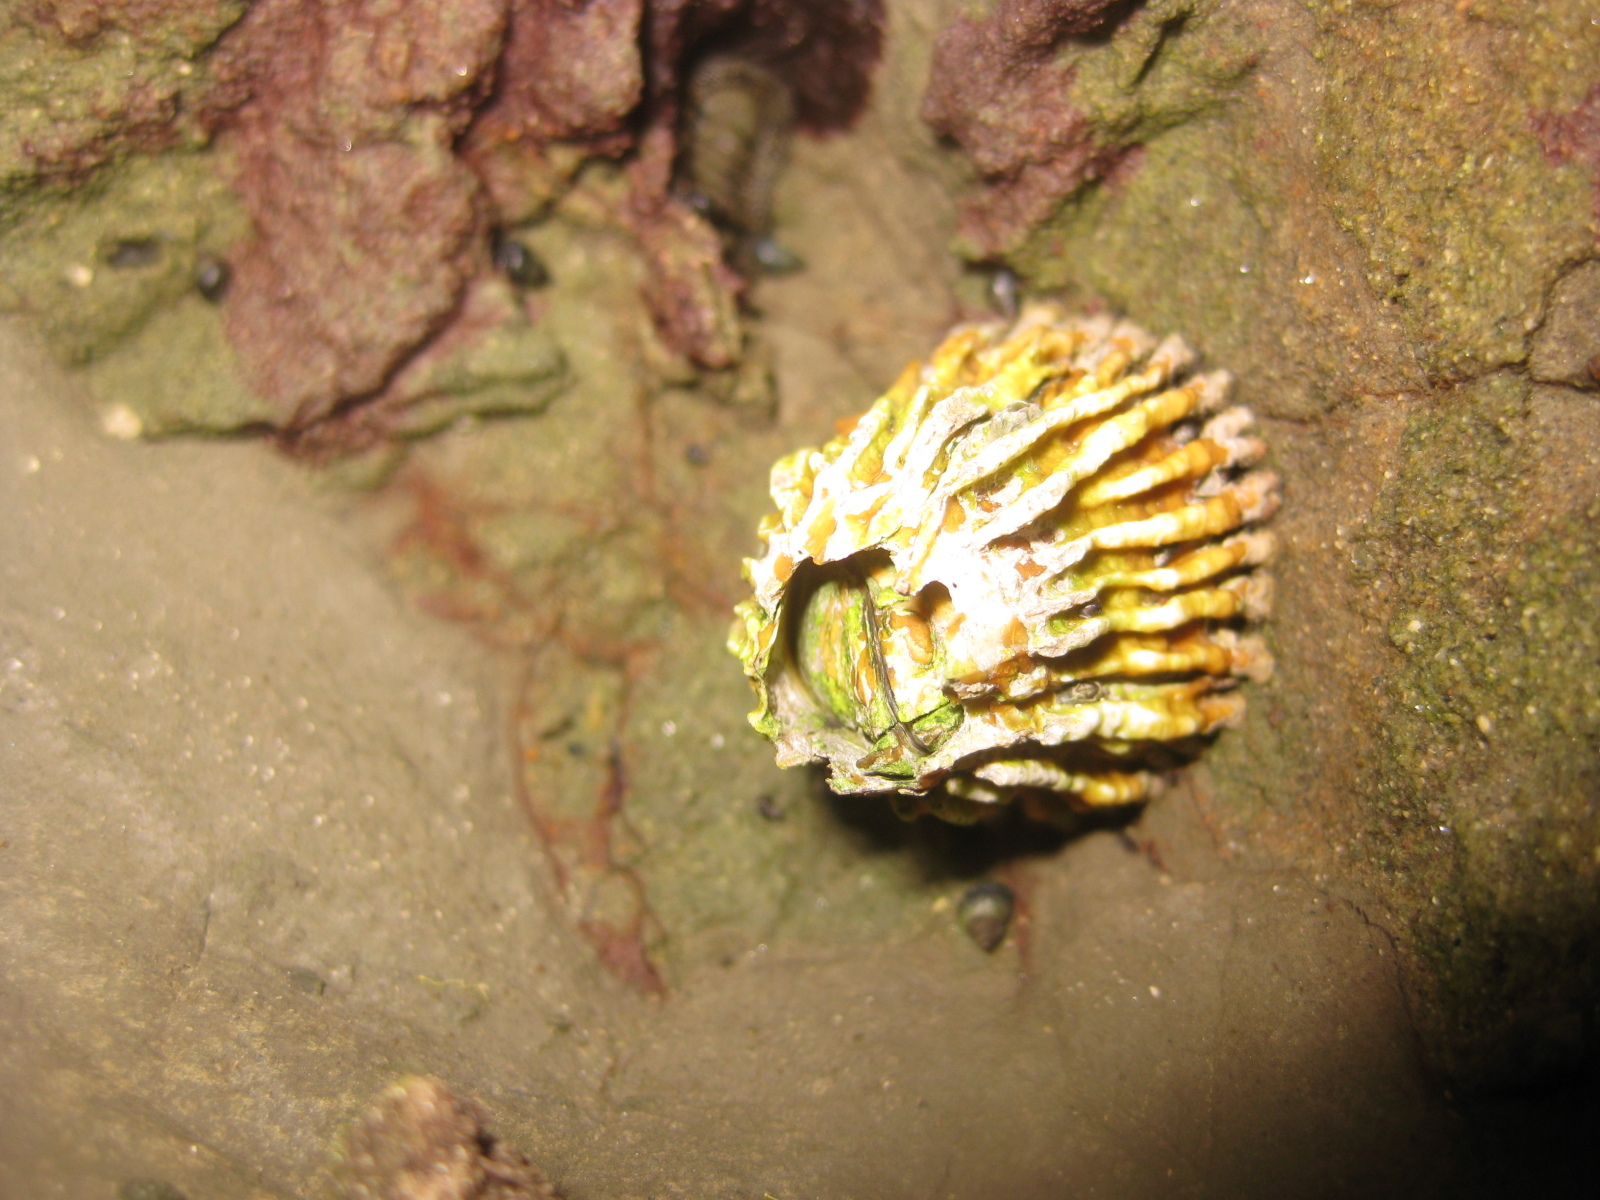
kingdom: Animalia
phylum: Arthropoda
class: Maxillopoda
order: Sessilia
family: Tetraclitidae
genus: Epopella
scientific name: Epopella plicata
